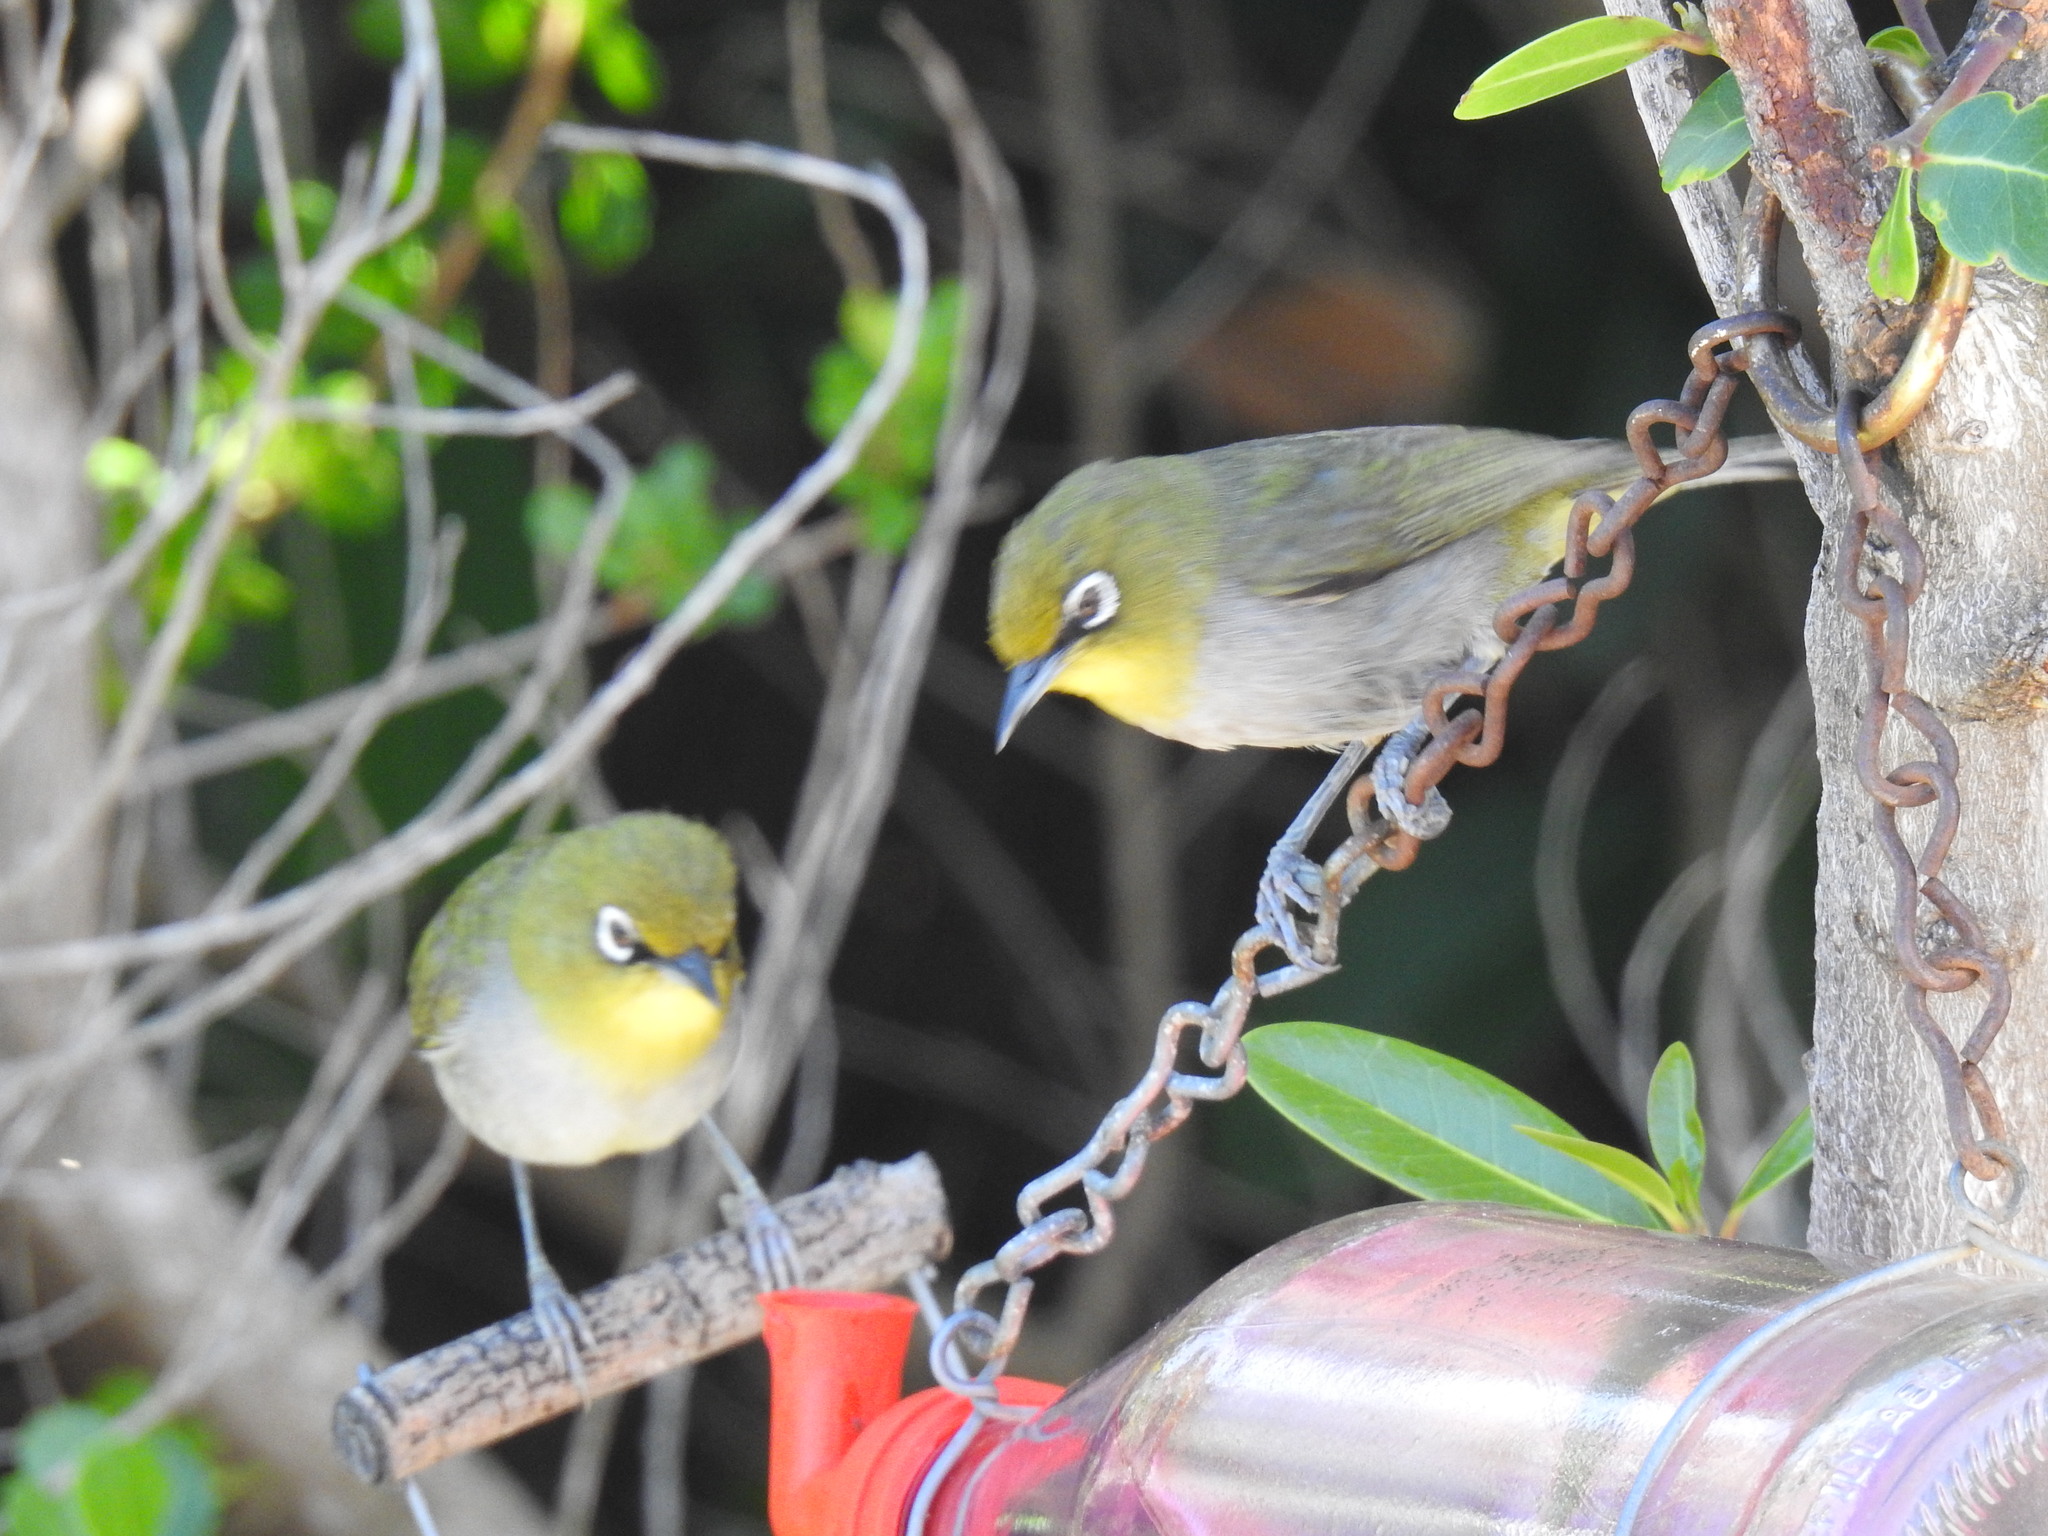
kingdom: Animalia
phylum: Chordata
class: Aves
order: Passeriformes
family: Zosteropidae
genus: Zosterops
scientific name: Zosterops virens
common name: Cape white-eye
